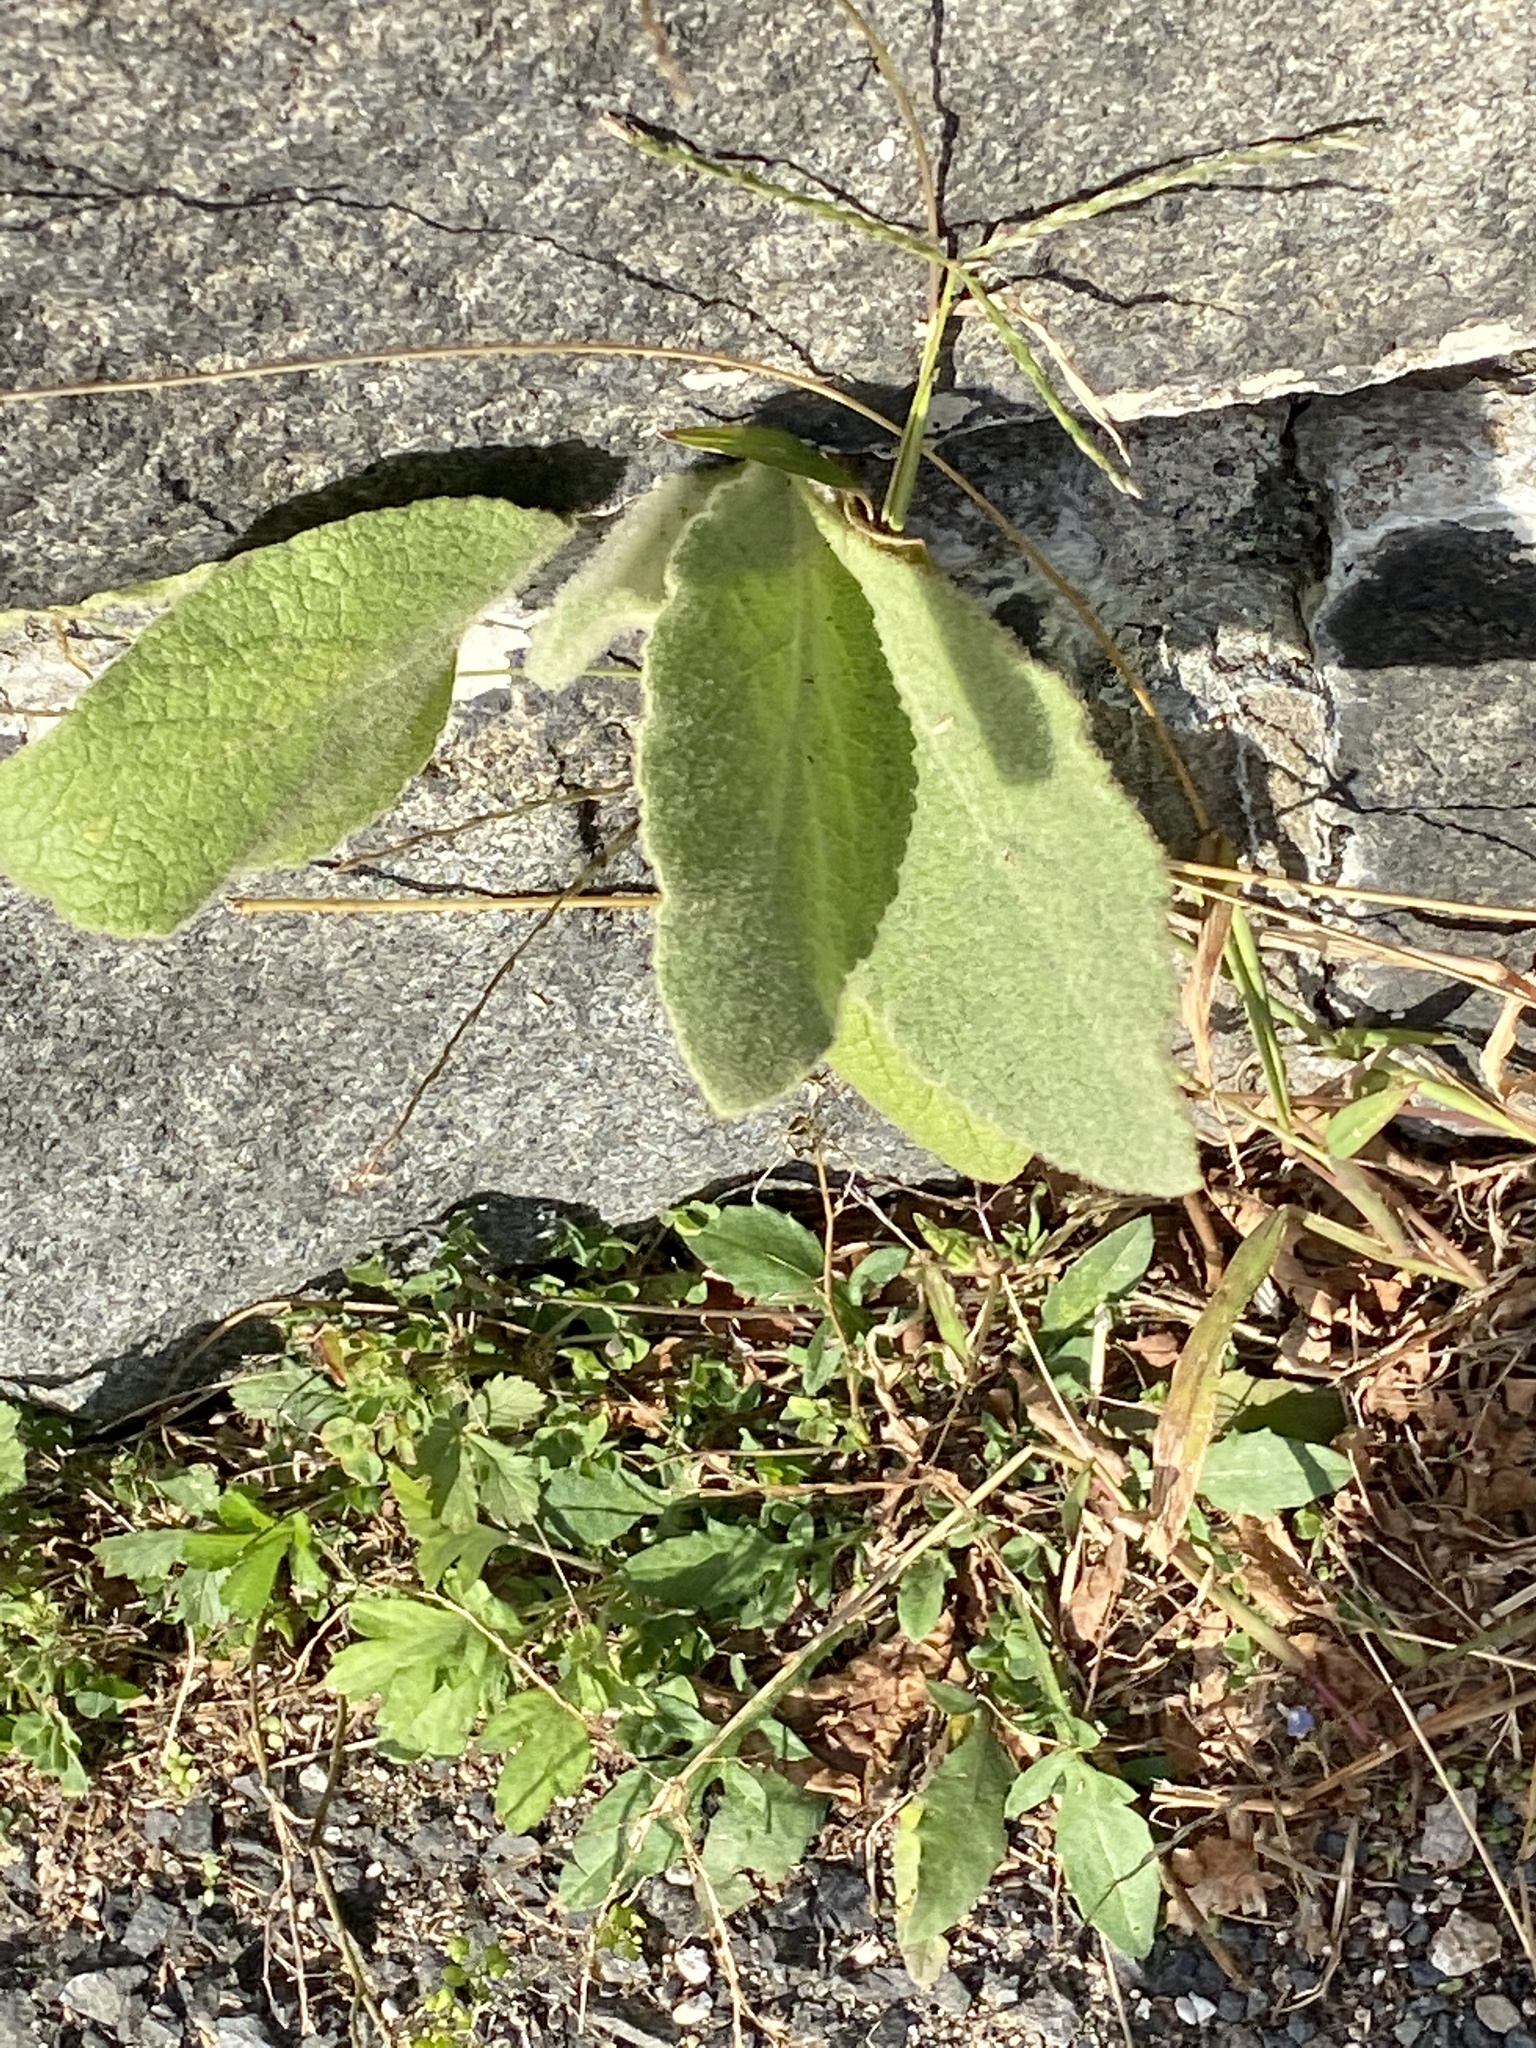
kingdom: Plantae
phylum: Tracheophyta
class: Magnoliopsida
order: Lamiales
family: Scrophulariaceae
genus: Verbascum
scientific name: Verbascum thapsus
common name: Common mullein
